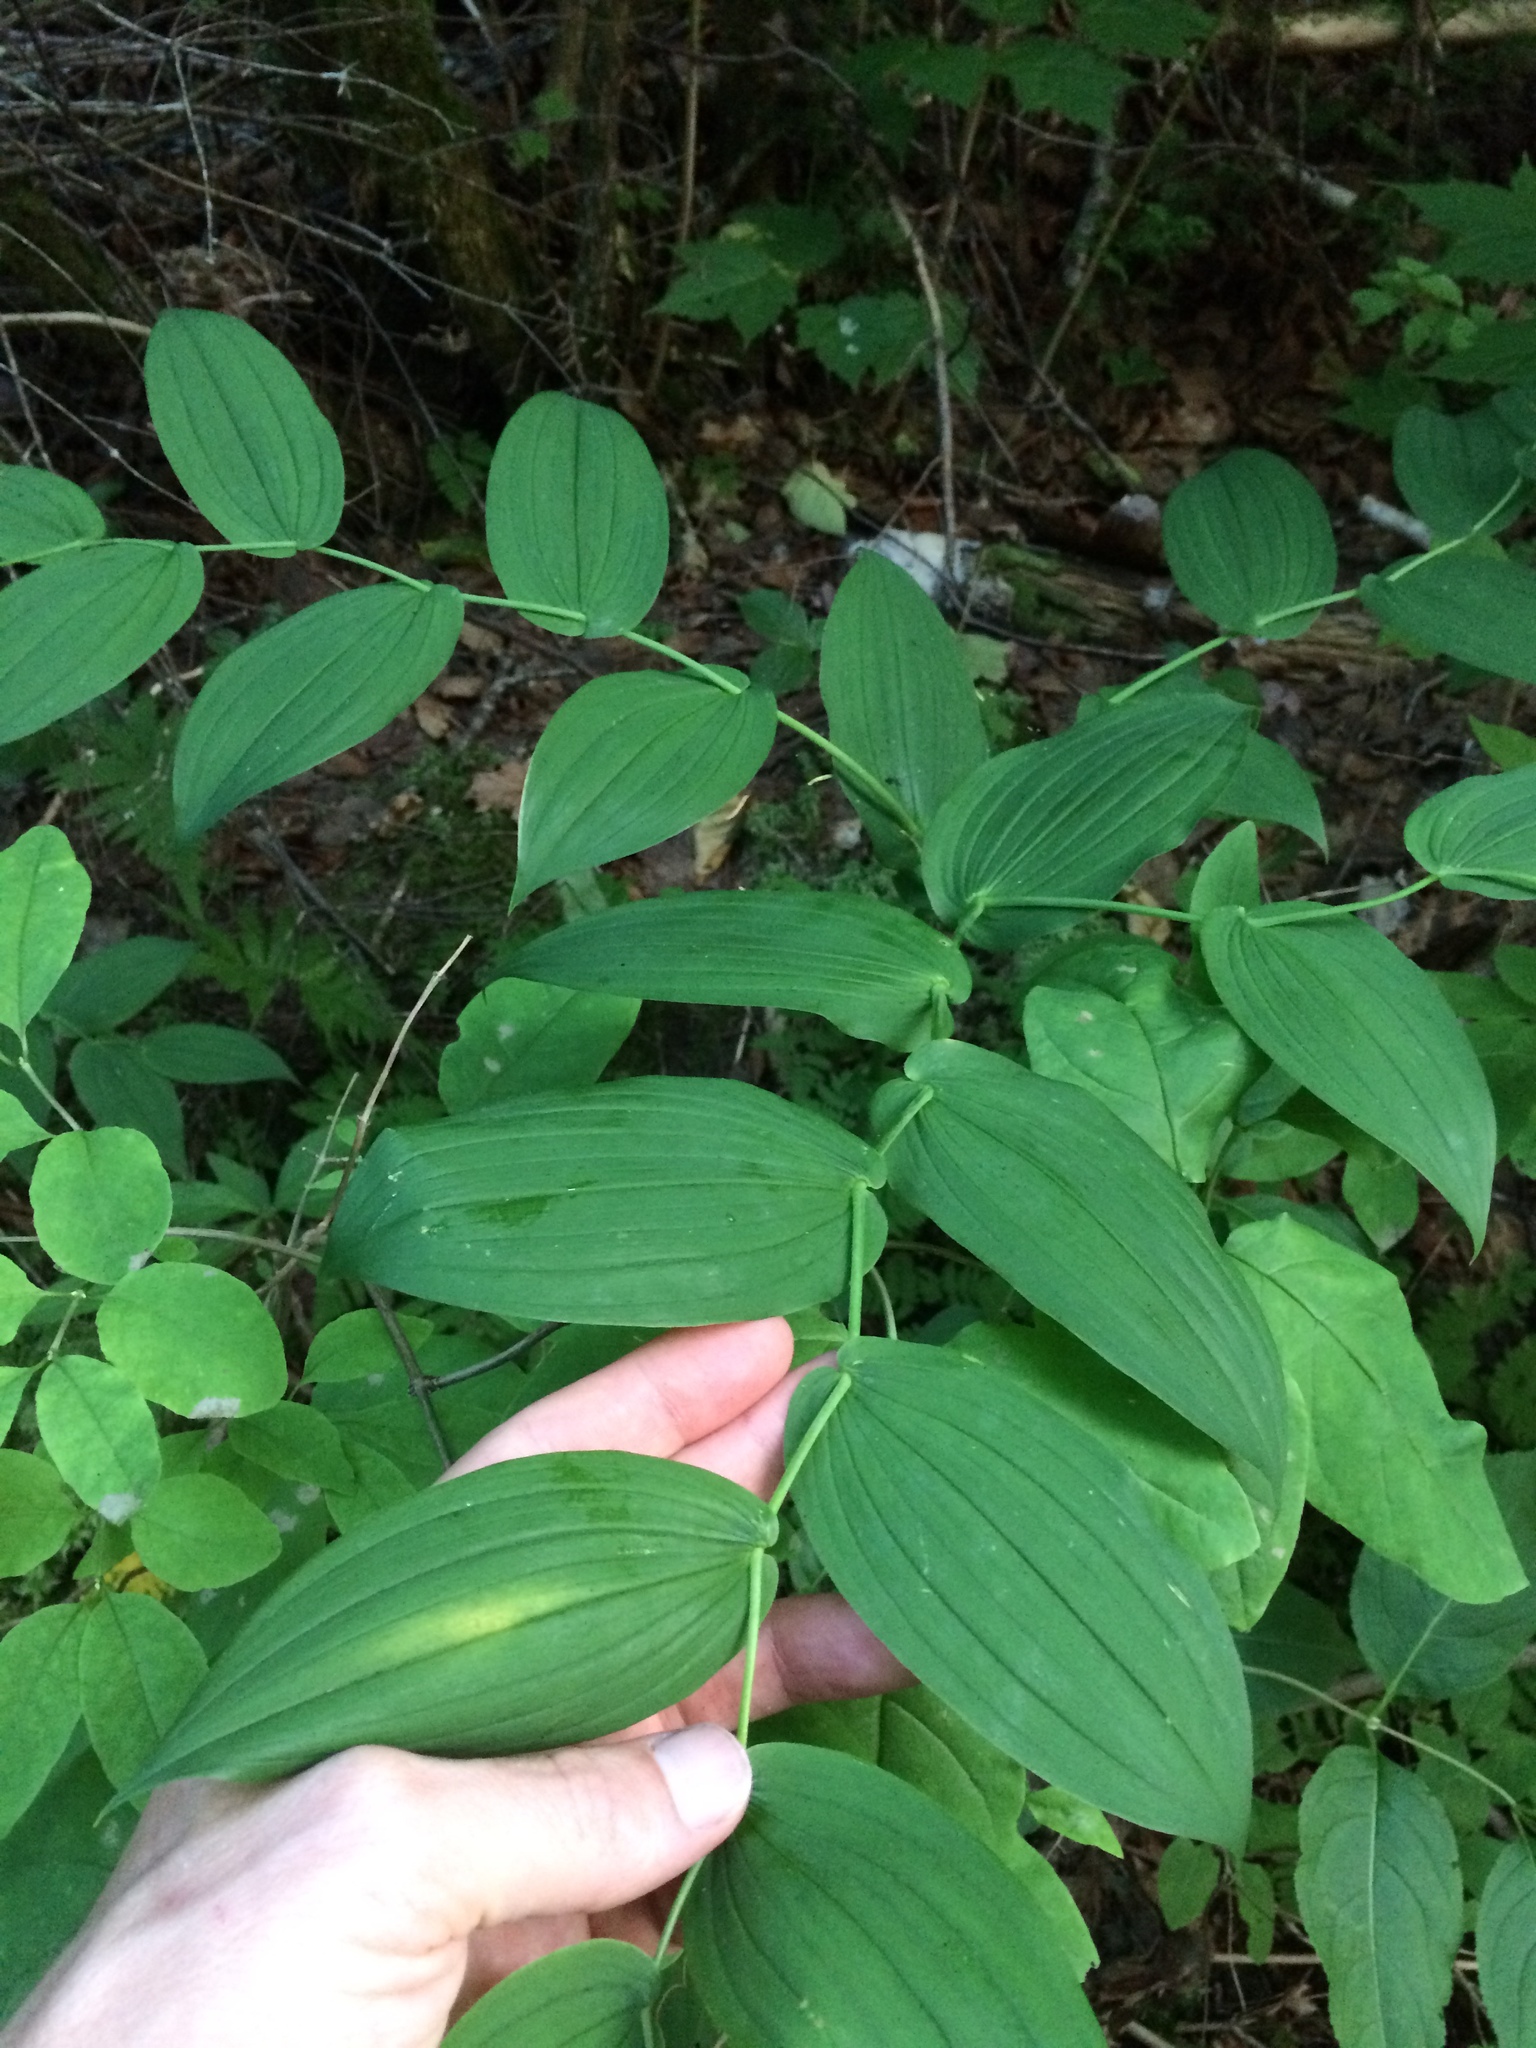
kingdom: Plantae
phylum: Tracheophyta
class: Liliopsida
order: Liliales
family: Liliaceae
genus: Streptopus
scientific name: Streptopus amplexifolius
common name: Clasp twisted stalk
